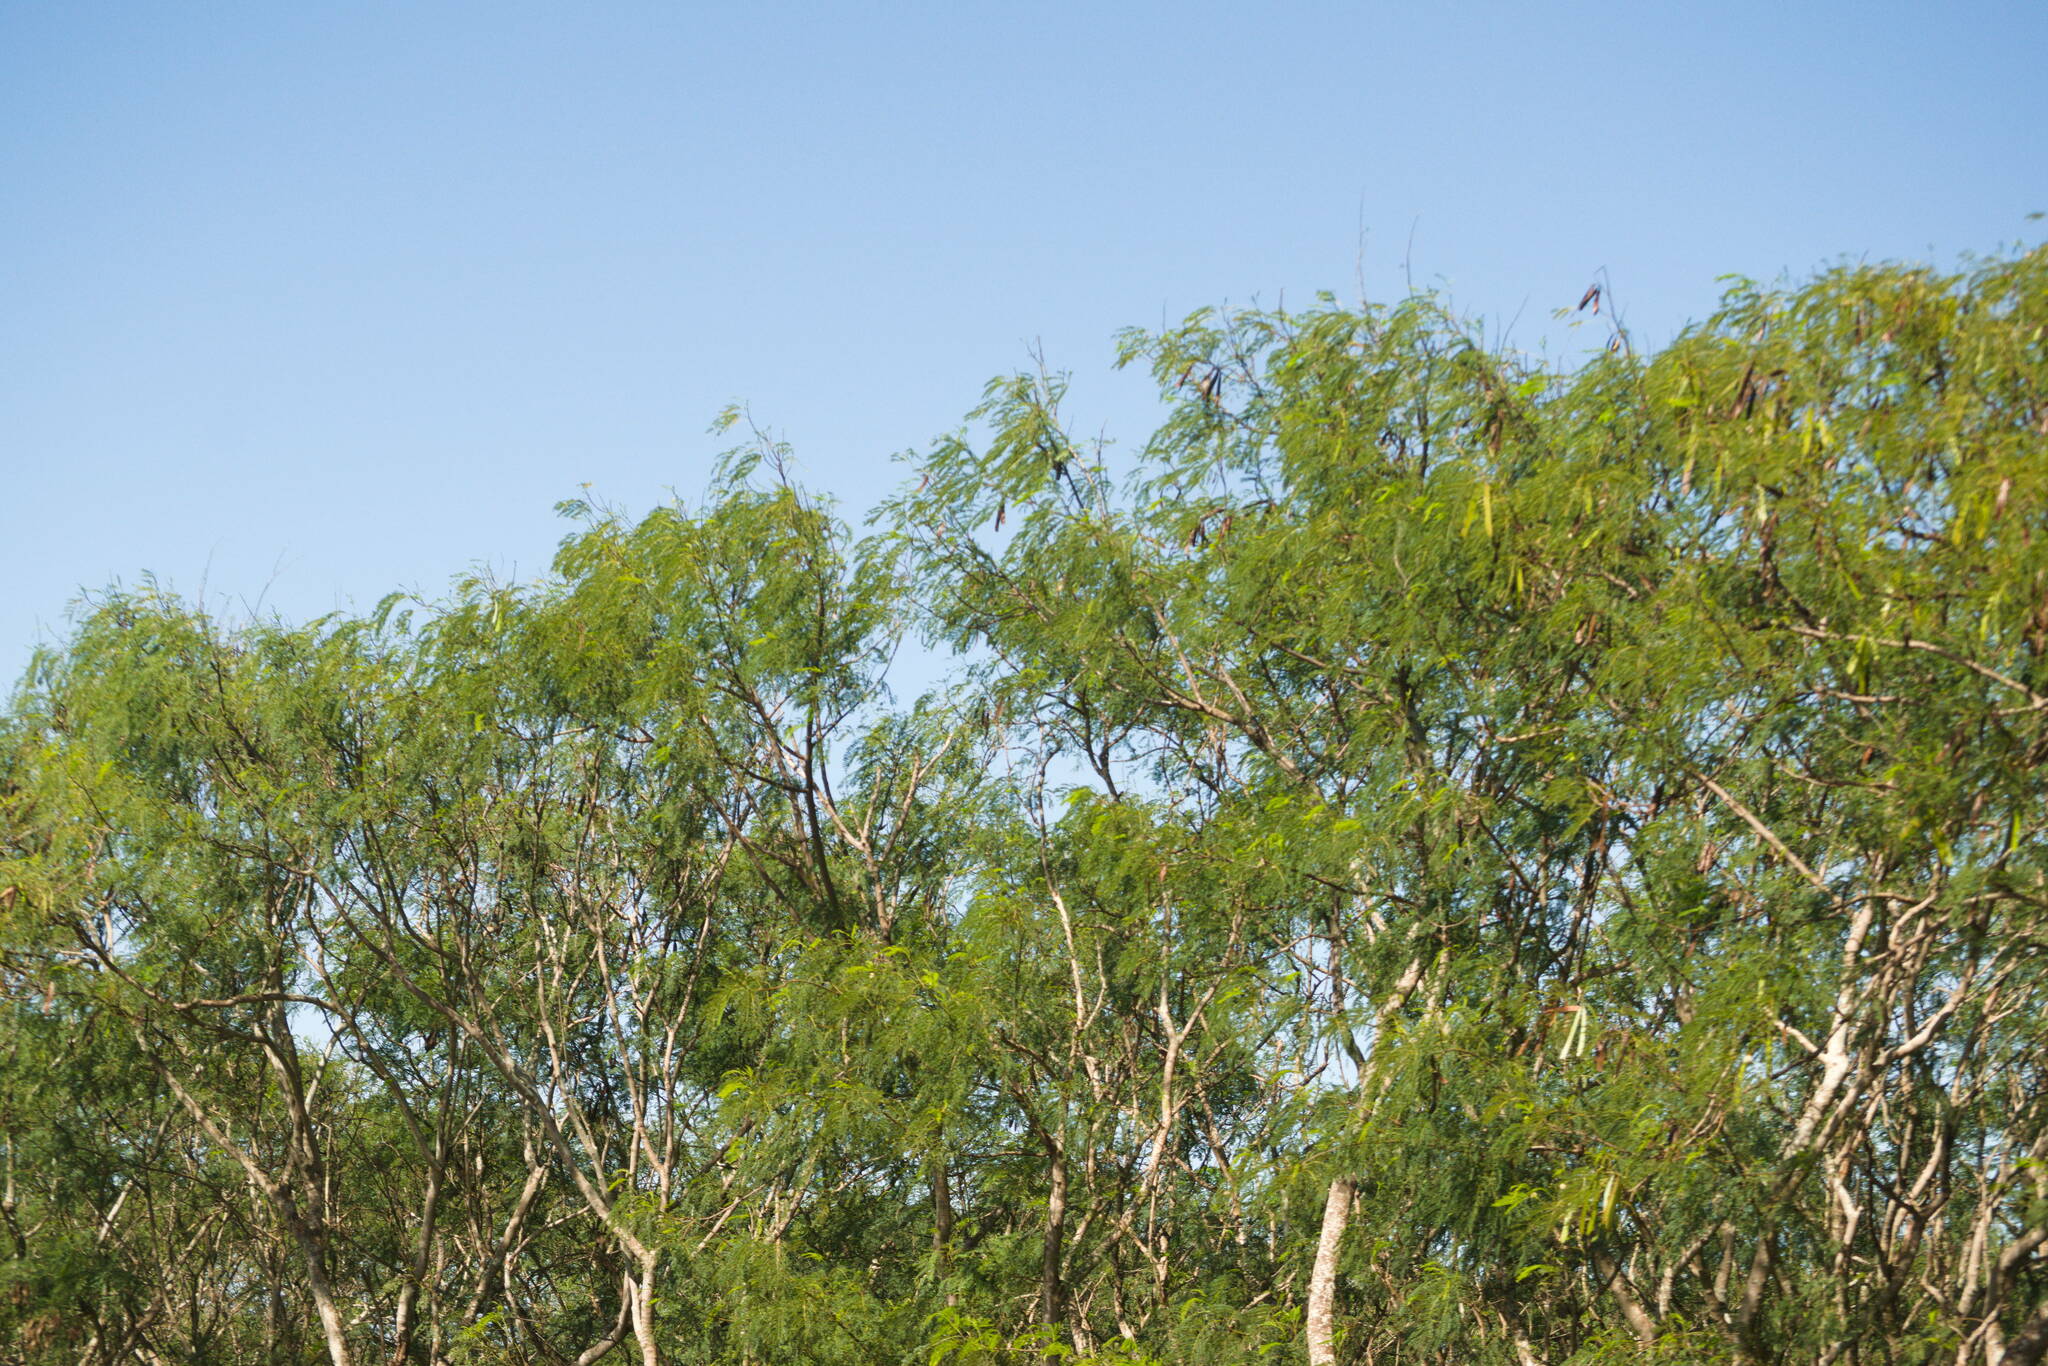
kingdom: Plantae
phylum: Tracheophyta
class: Magnoliopsida
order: Fabales
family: Fabaceae
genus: Leucaena
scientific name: Leucaena leucocephala
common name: White leadtree
